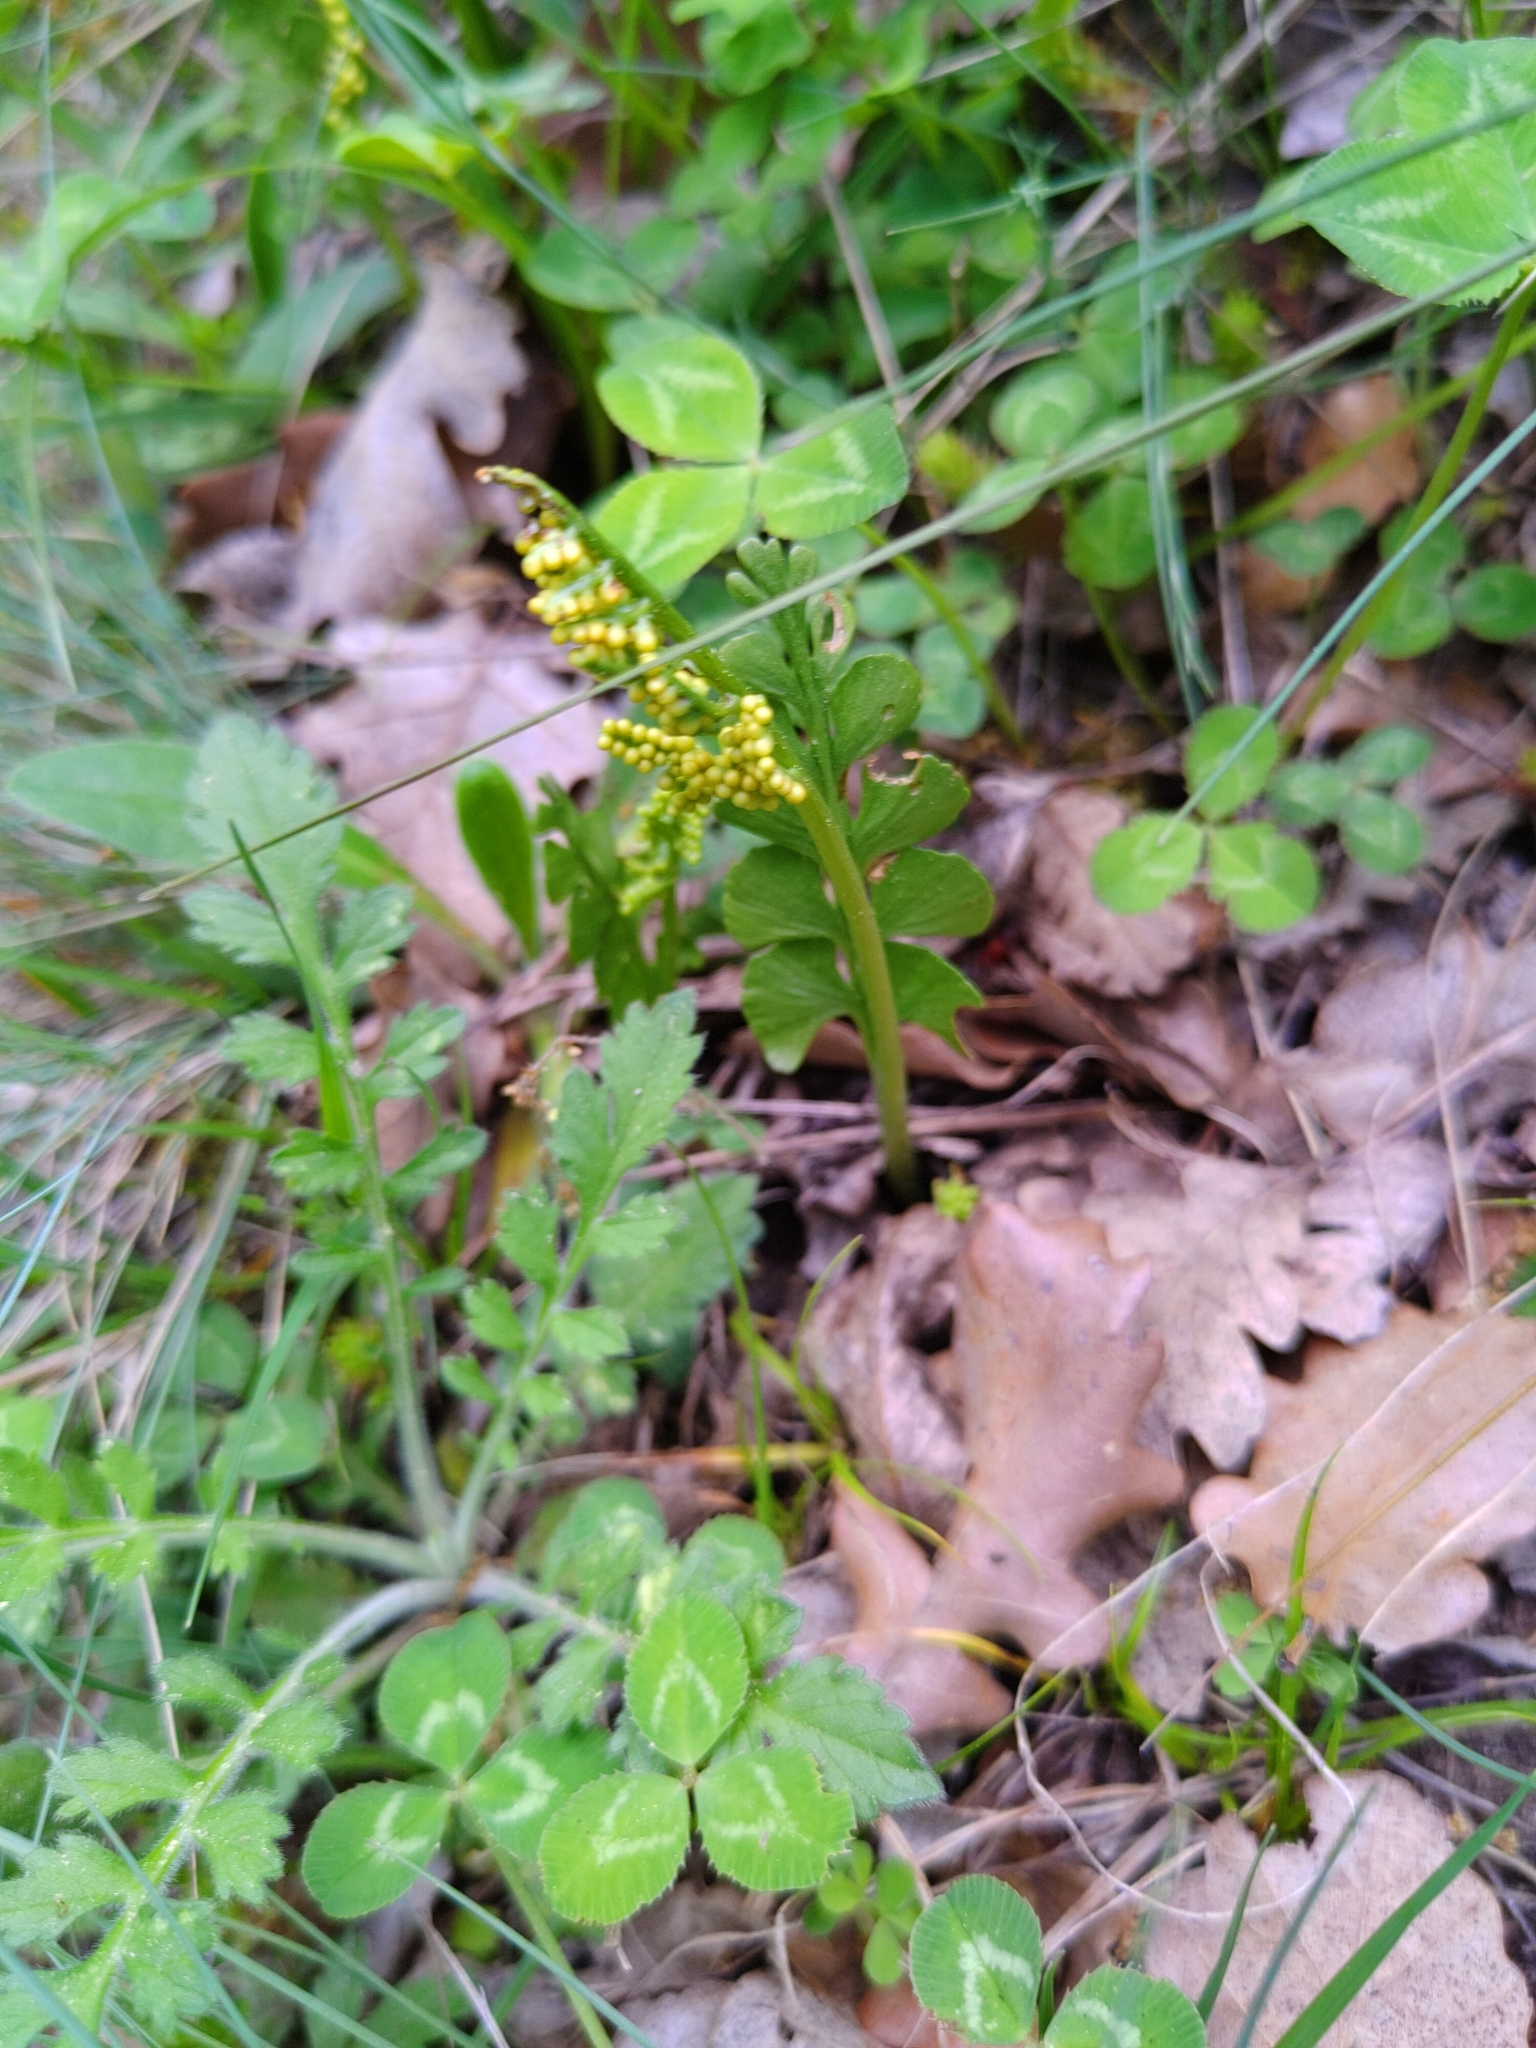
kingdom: Plantae
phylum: Tracheophyta
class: Polypodiopsida
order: Ophioglossales
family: Ophioglossaceae
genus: Botrychium
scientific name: Botrychium lunaria
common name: Moonwort
